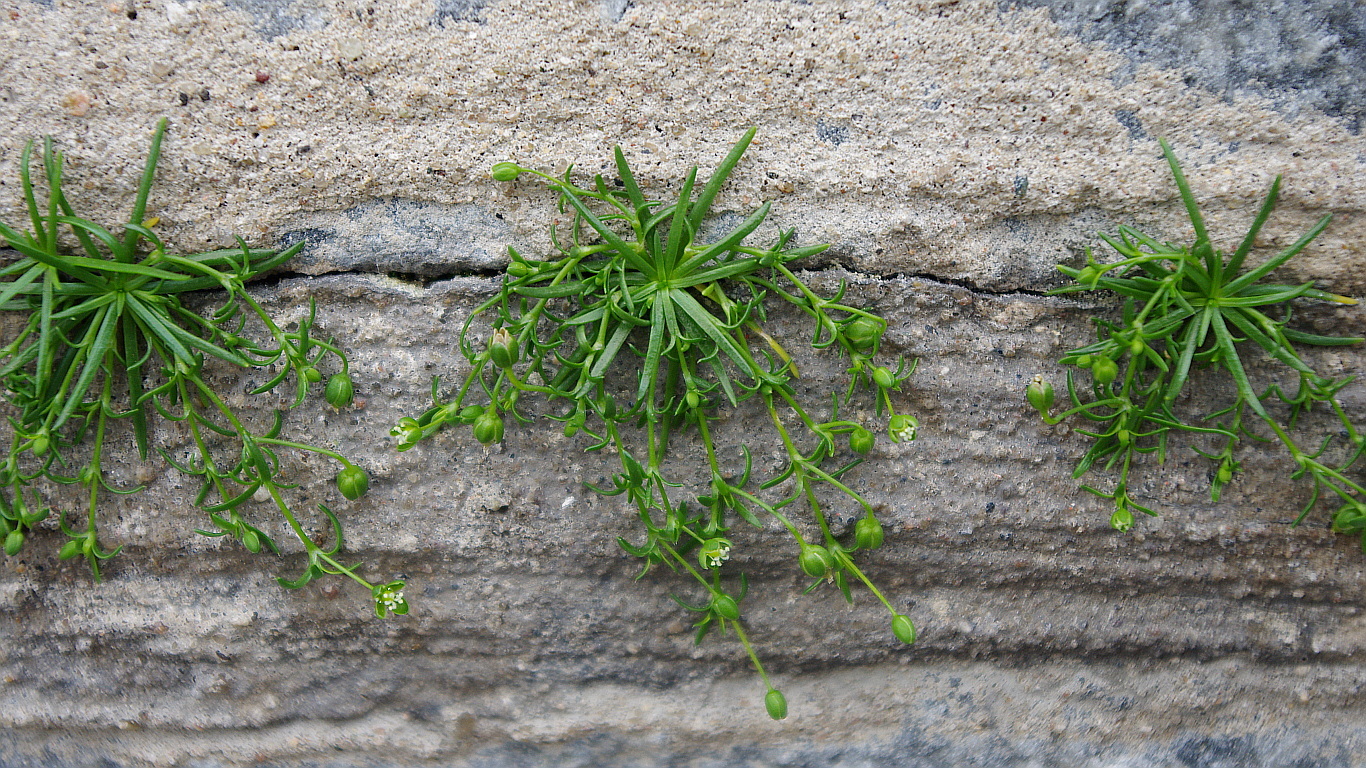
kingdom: Plantae
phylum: Tracheophyta
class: Magnoliopsida
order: Caryophyllales
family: Caryophyllaceae
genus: Sagina
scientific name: Sagina procumbens
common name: Procumbent pearlwort
